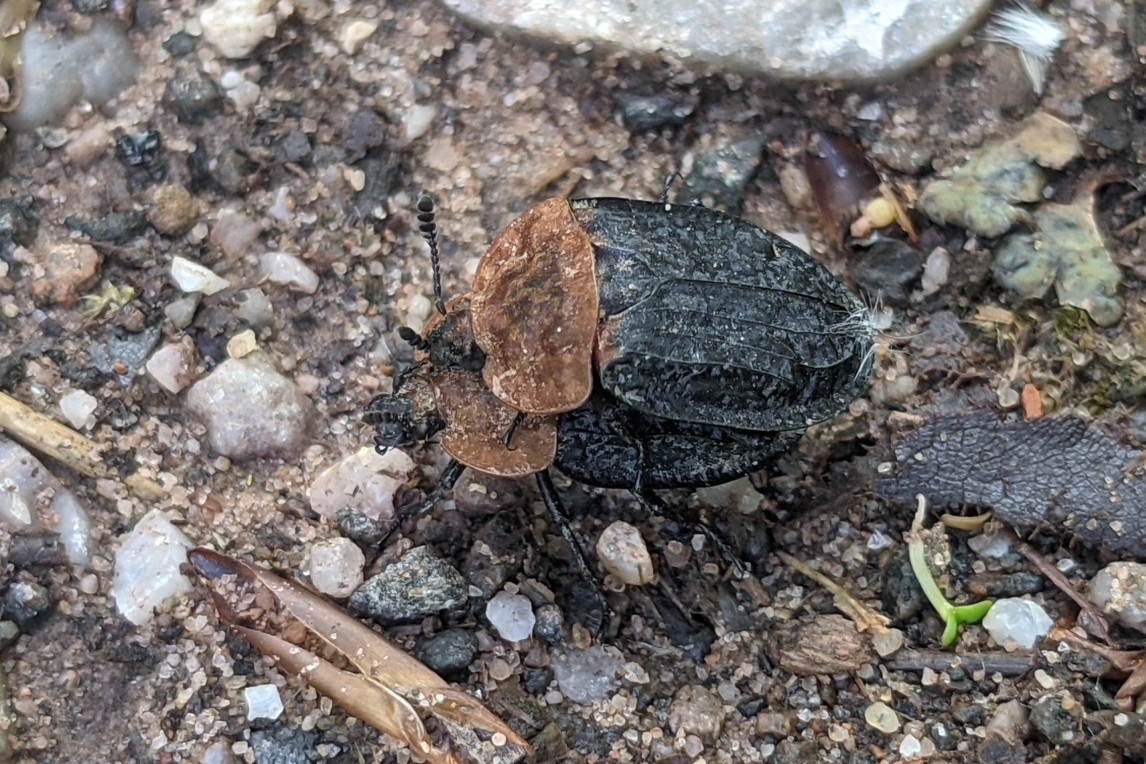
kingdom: Animalia
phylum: Arthropoda
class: Insecta
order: Coleoptera
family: Staphylinidae
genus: Oiceoptoma
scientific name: Oiceoptoma thoracicum
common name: Red-breasted carrion beetle
